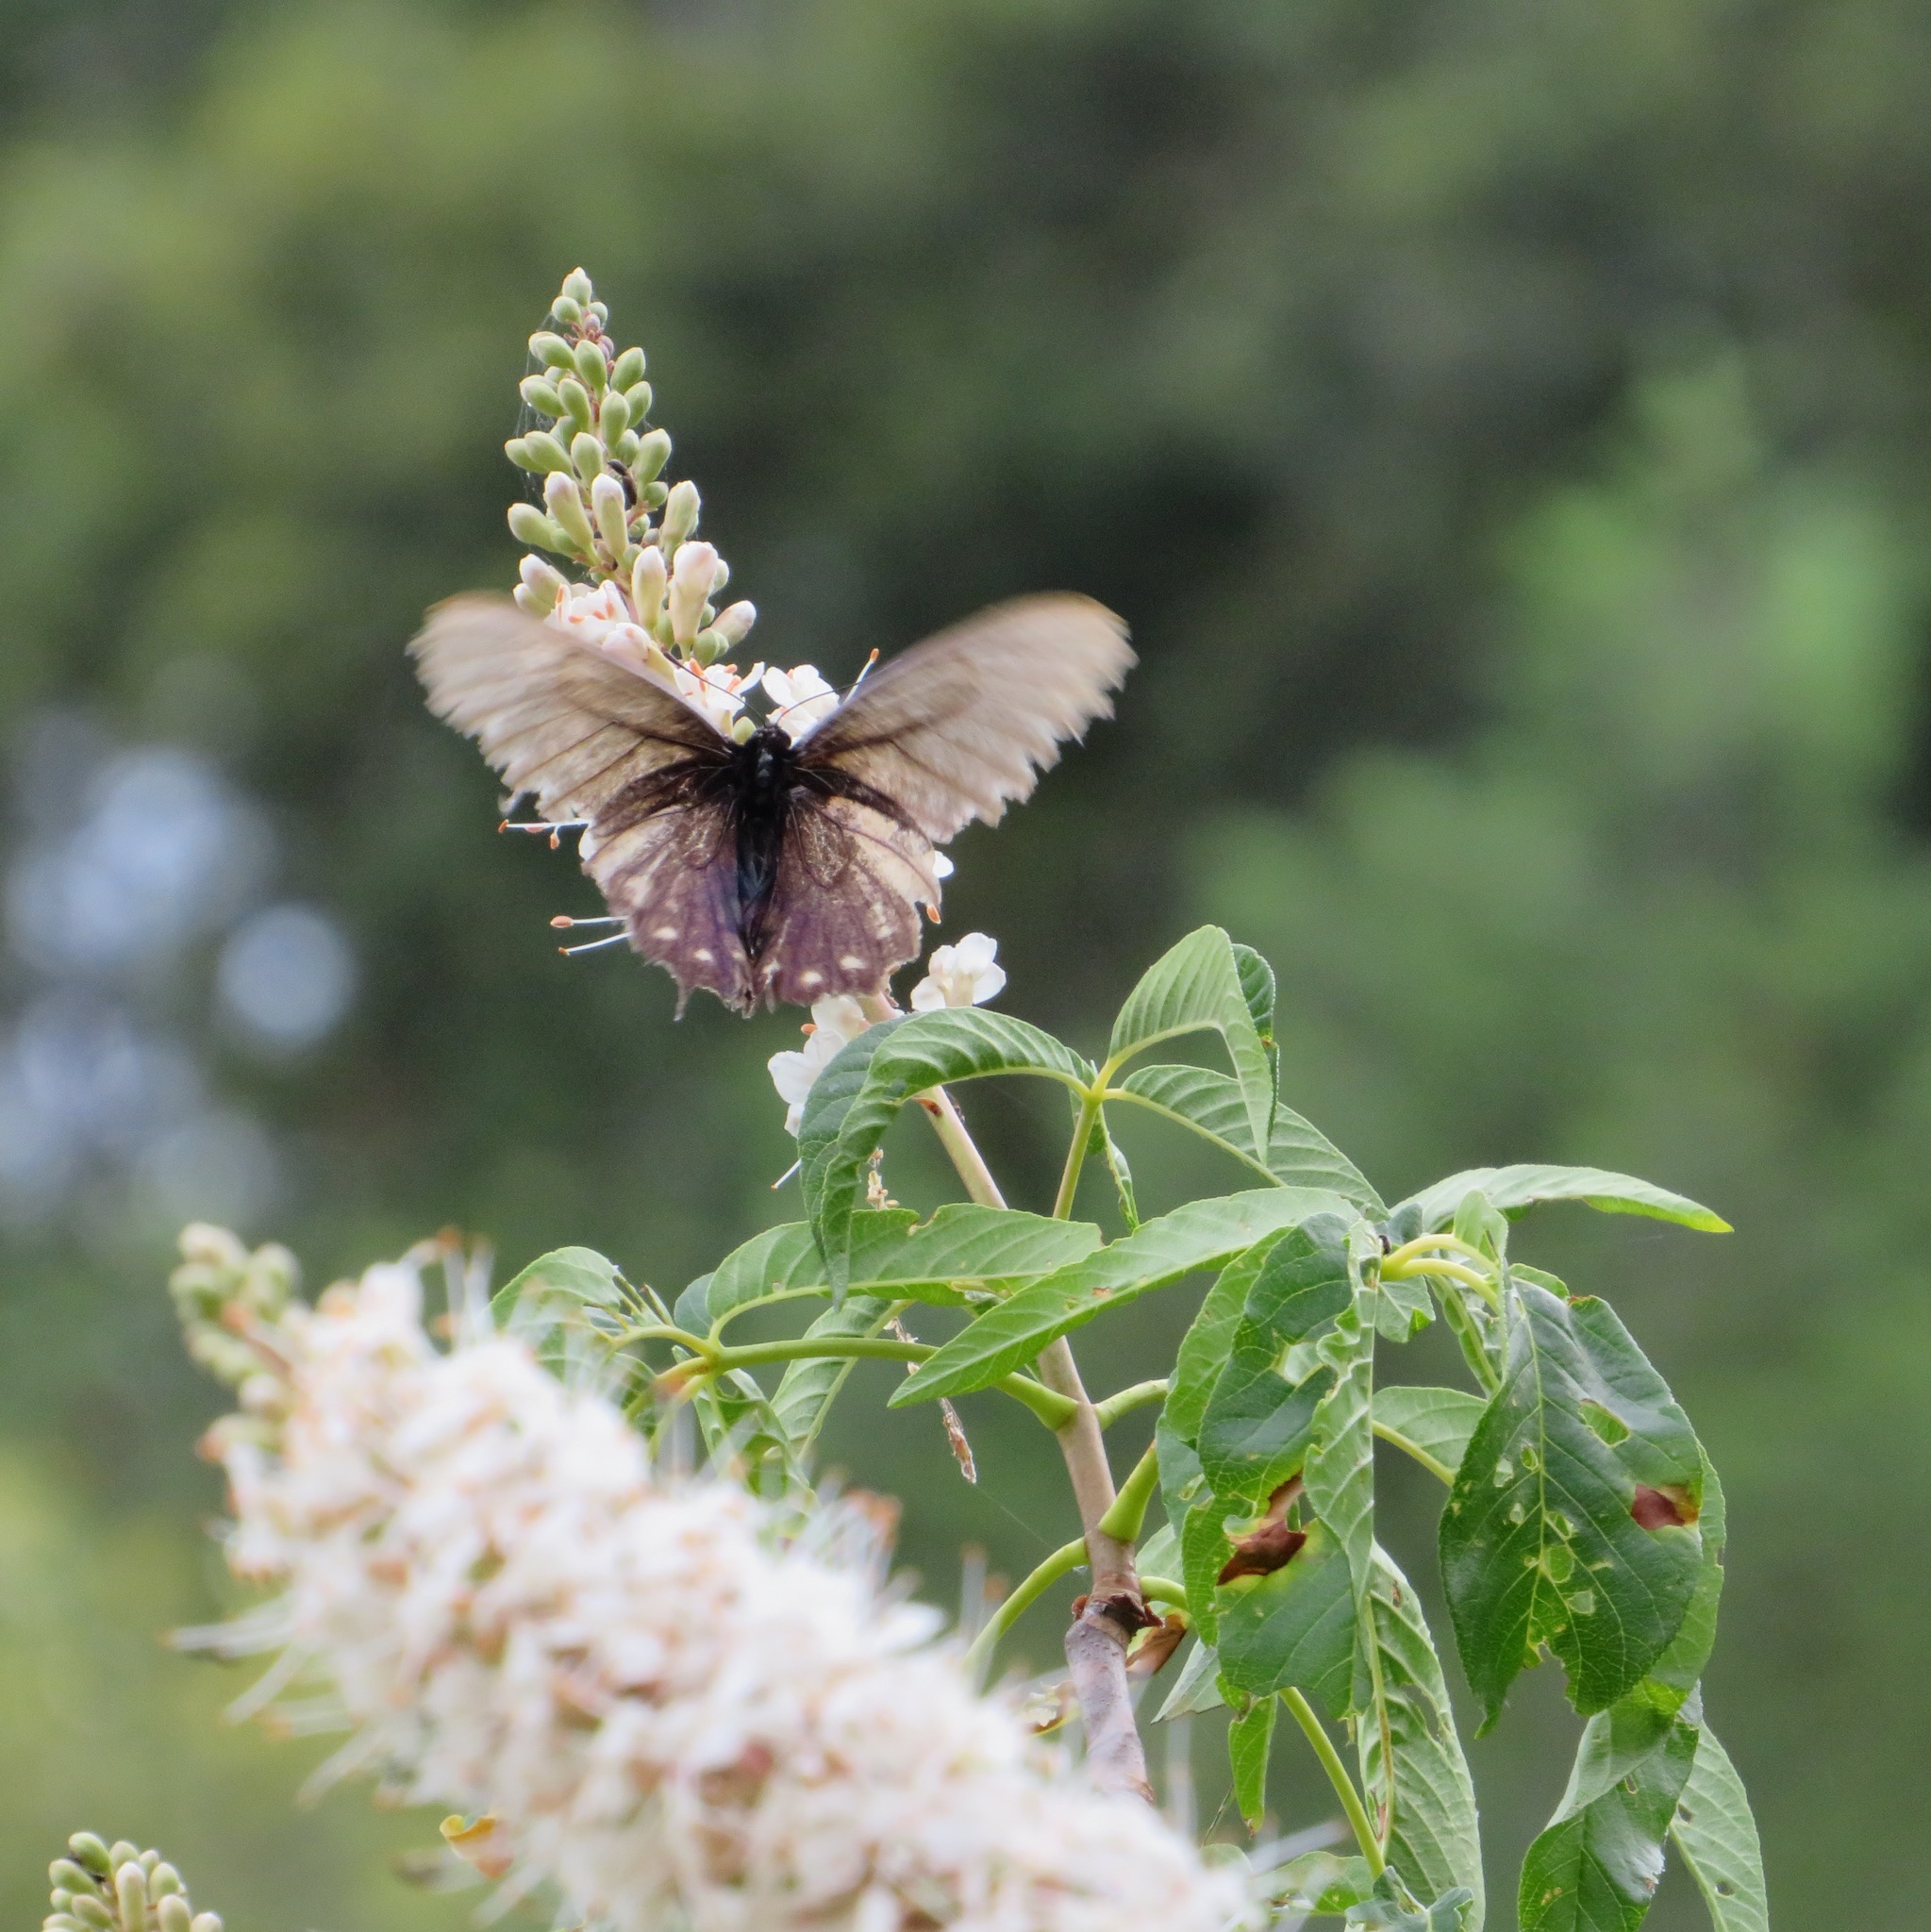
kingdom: Plantae
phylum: Tracheophyta
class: Magnoliopsida
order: Sapindales
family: Sapindaceae
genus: Aesculus
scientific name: Aesculus californica
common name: California buckeye
